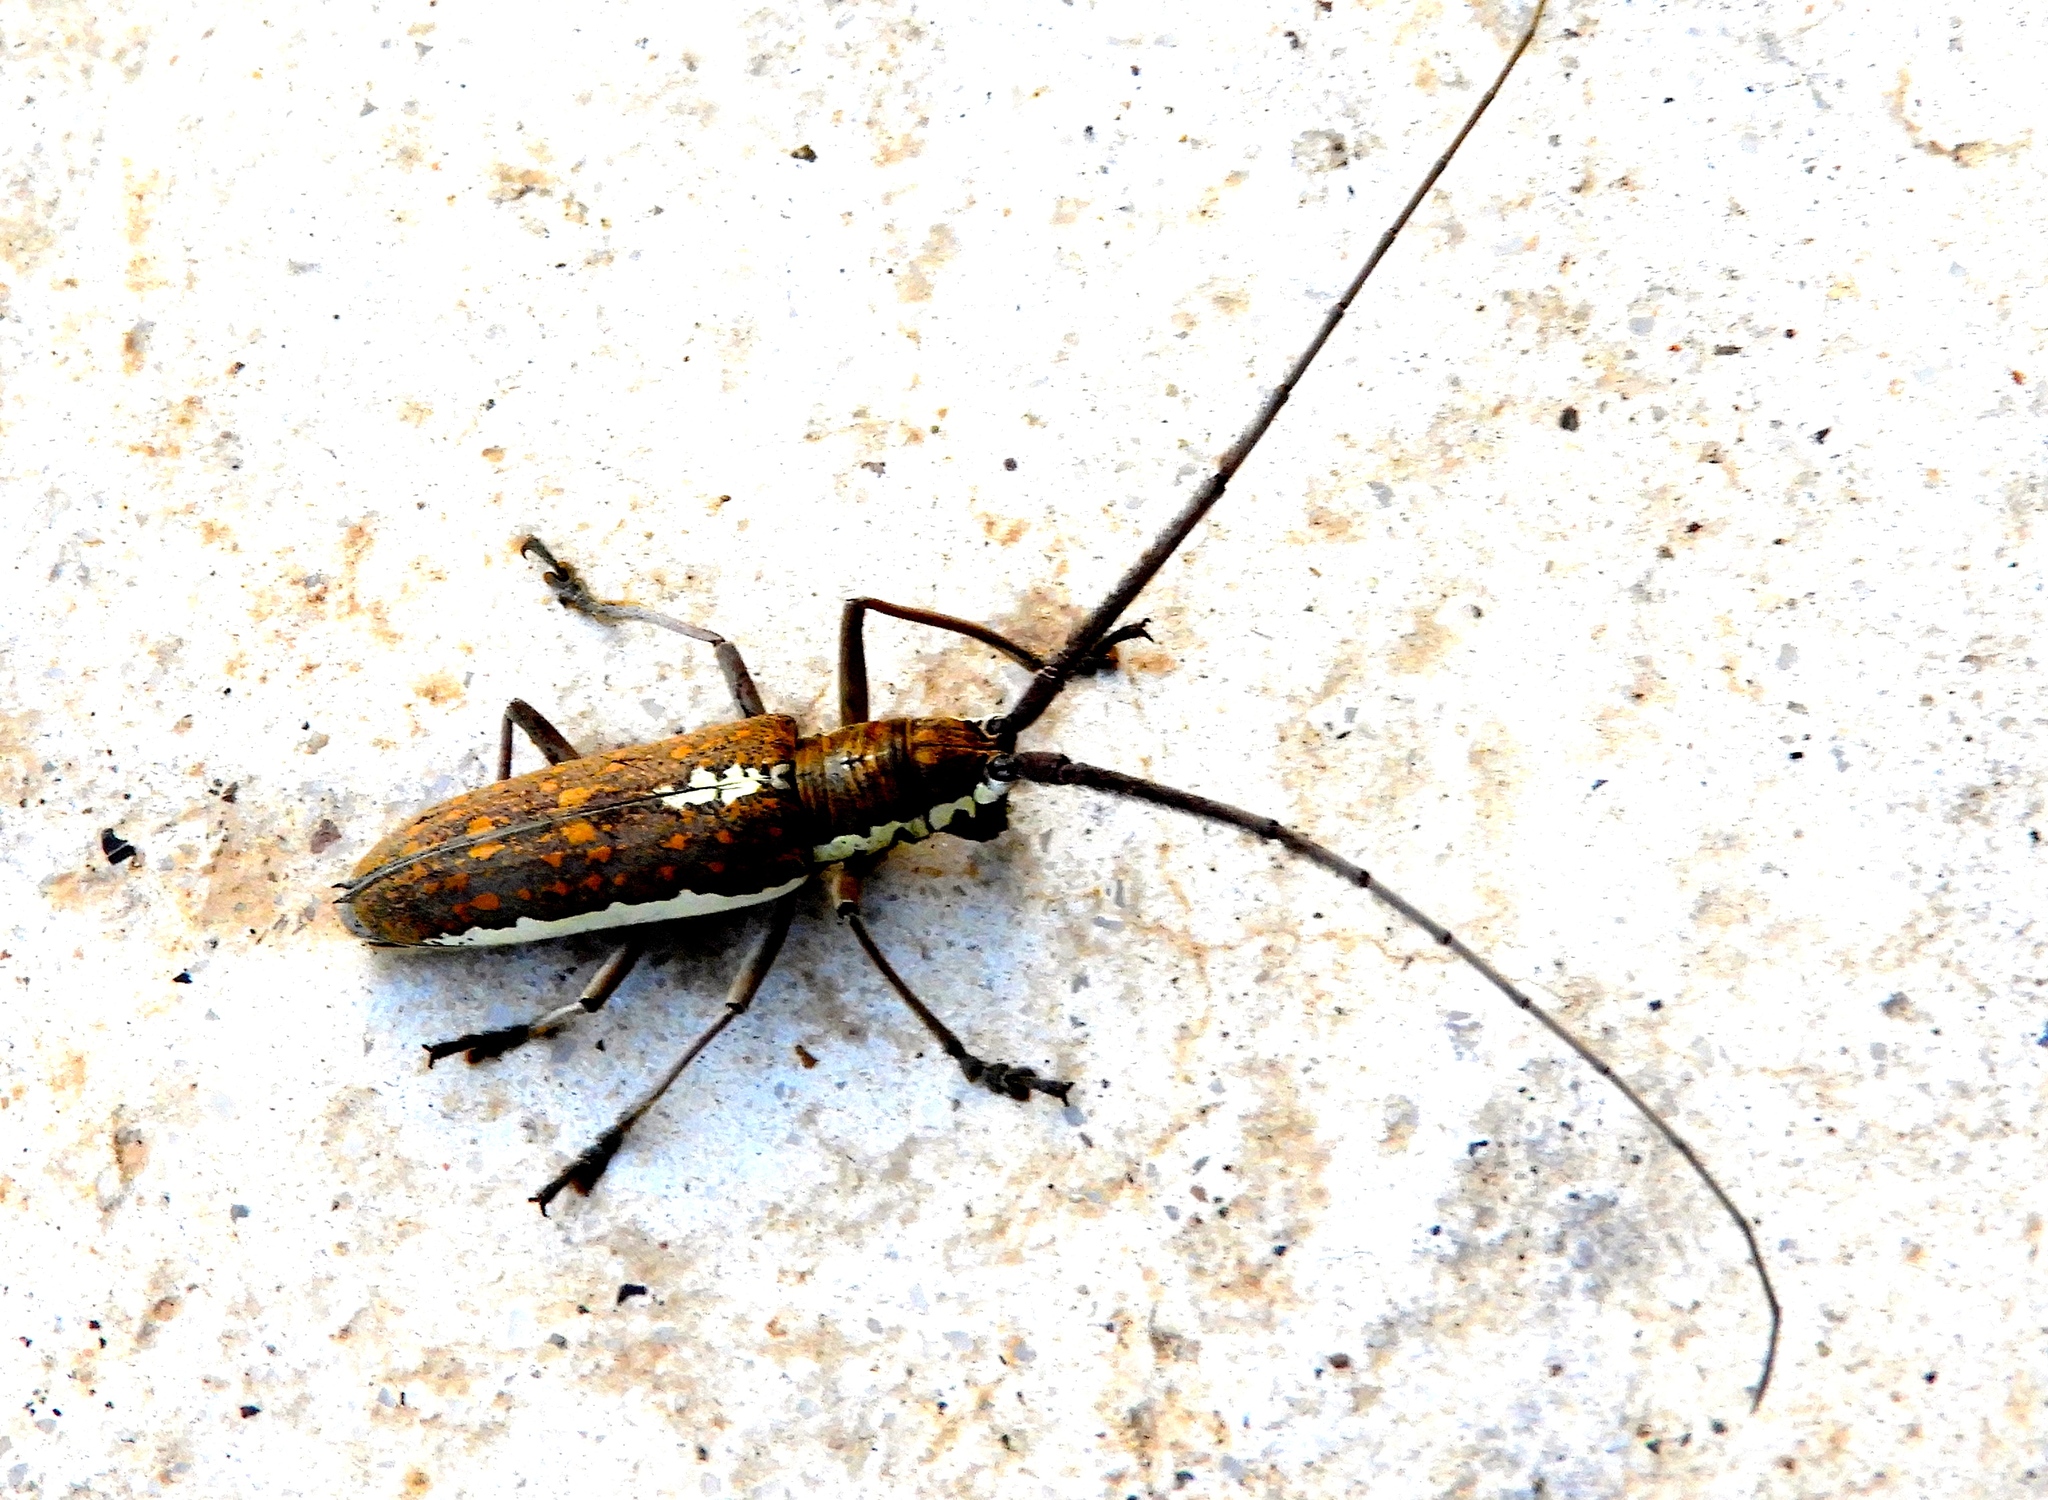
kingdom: Animalia
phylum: Arthropoda
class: Insecta
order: Coleoptera
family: Cerambycidae
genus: Neoptychodes
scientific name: Neoptychodes trilineatus
